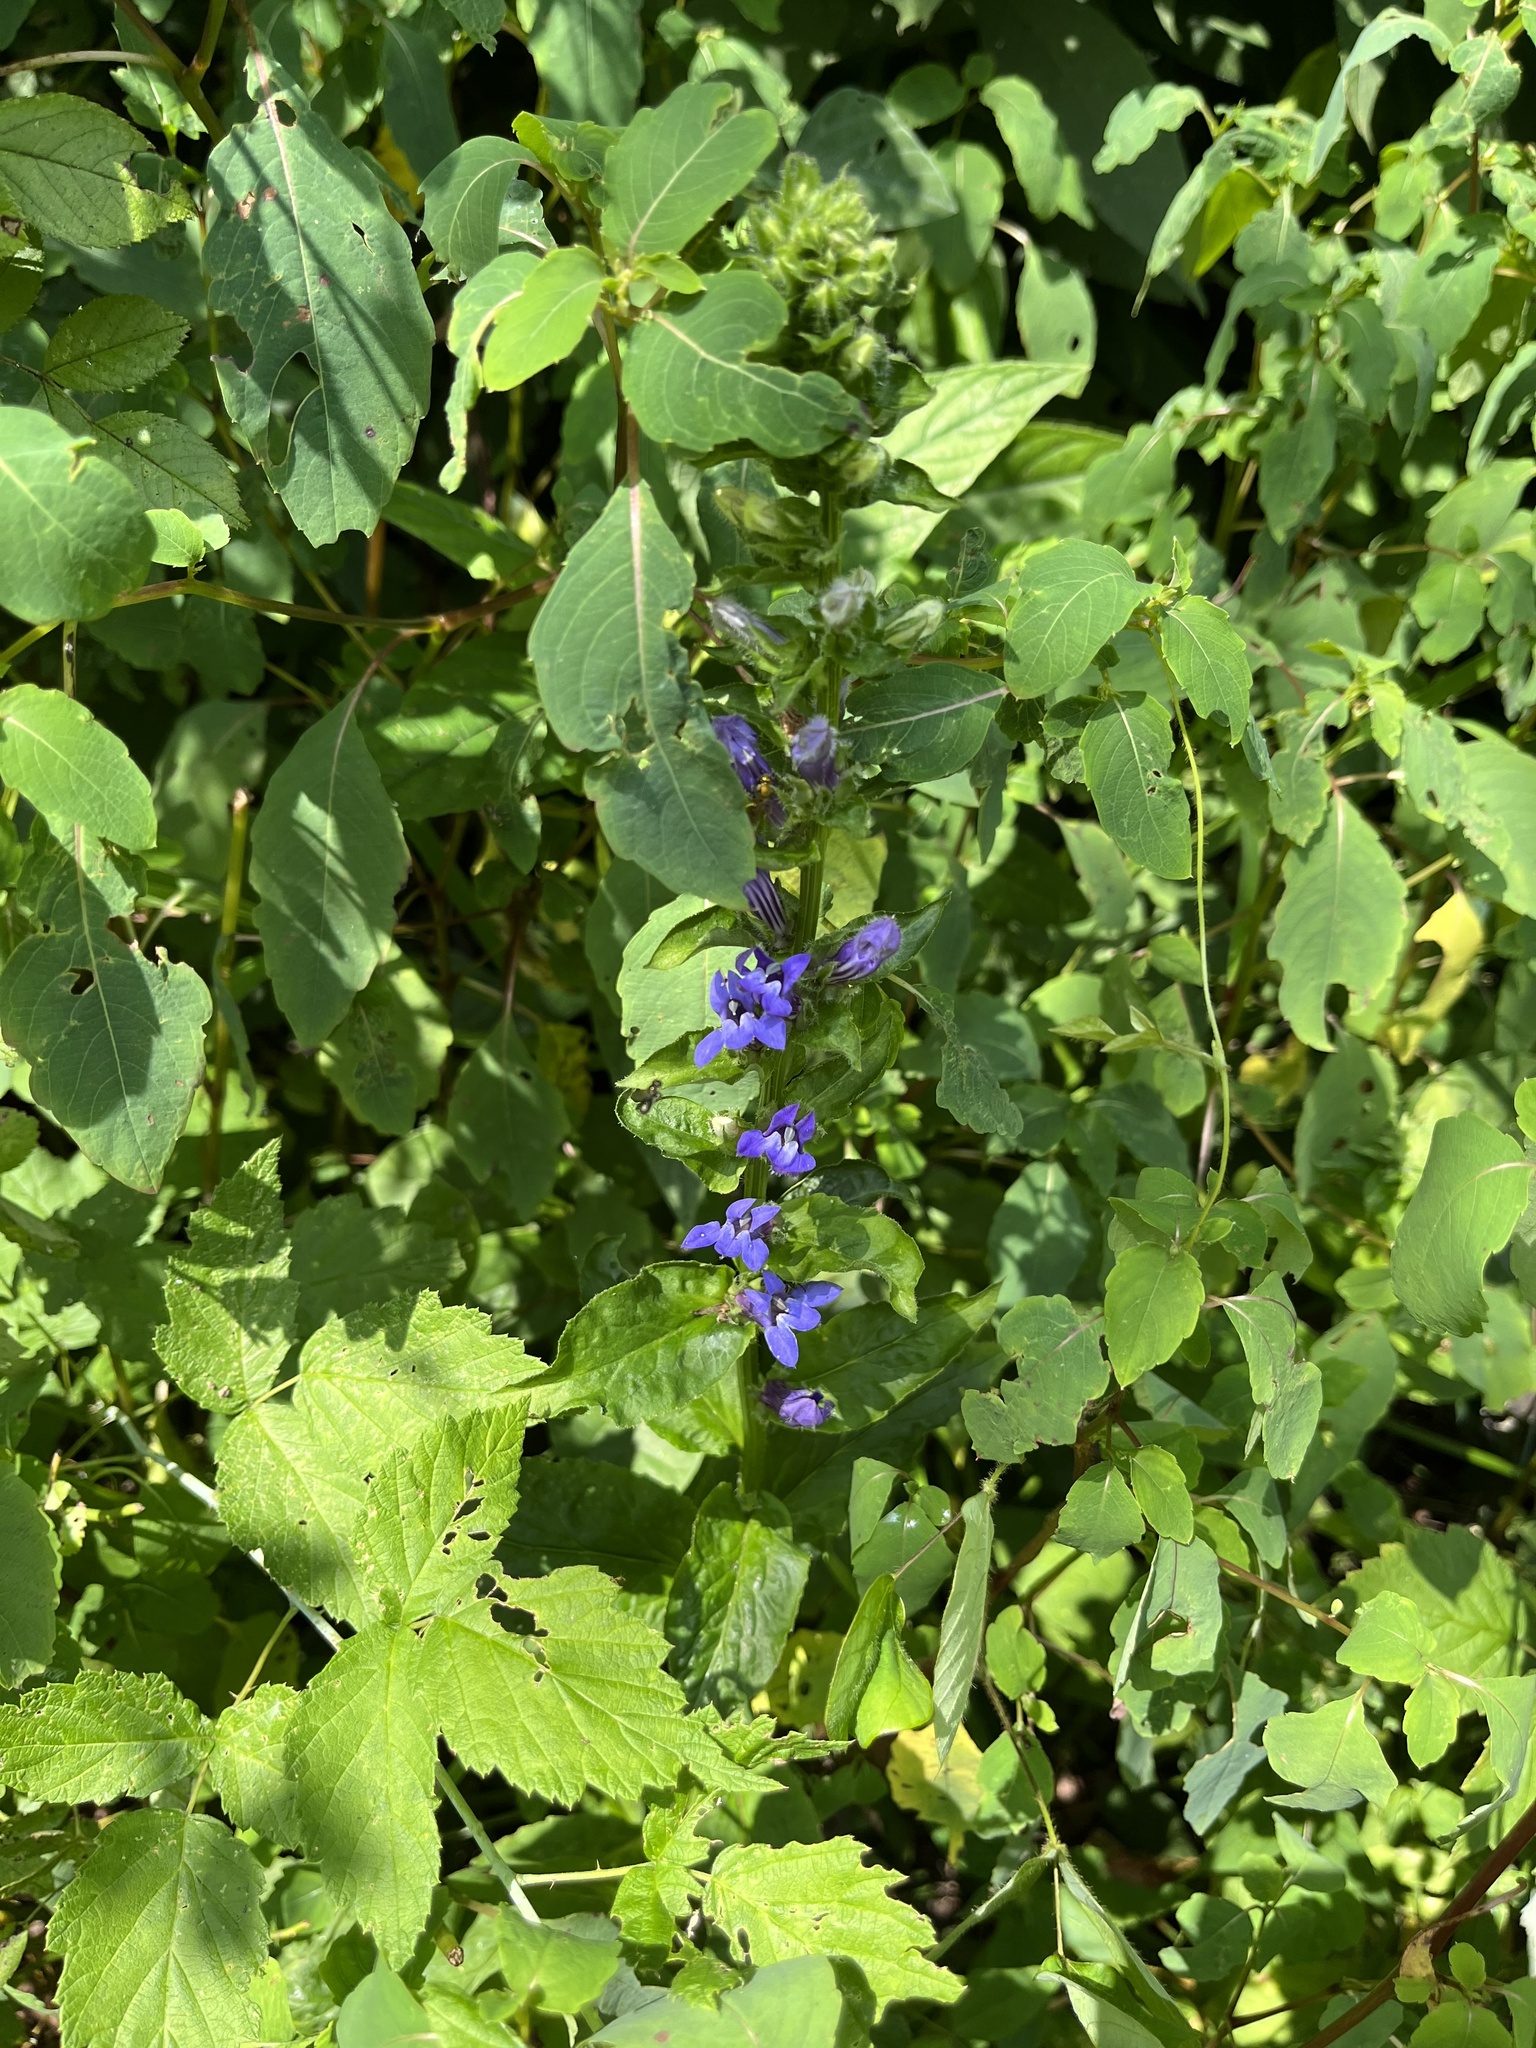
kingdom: Plantae
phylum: Tracheophyta
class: Magnoliopsida
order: Asterales
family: Campanulaceae
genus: Lobelia
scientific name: Lobelia siphilitica
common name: Great lobelia
